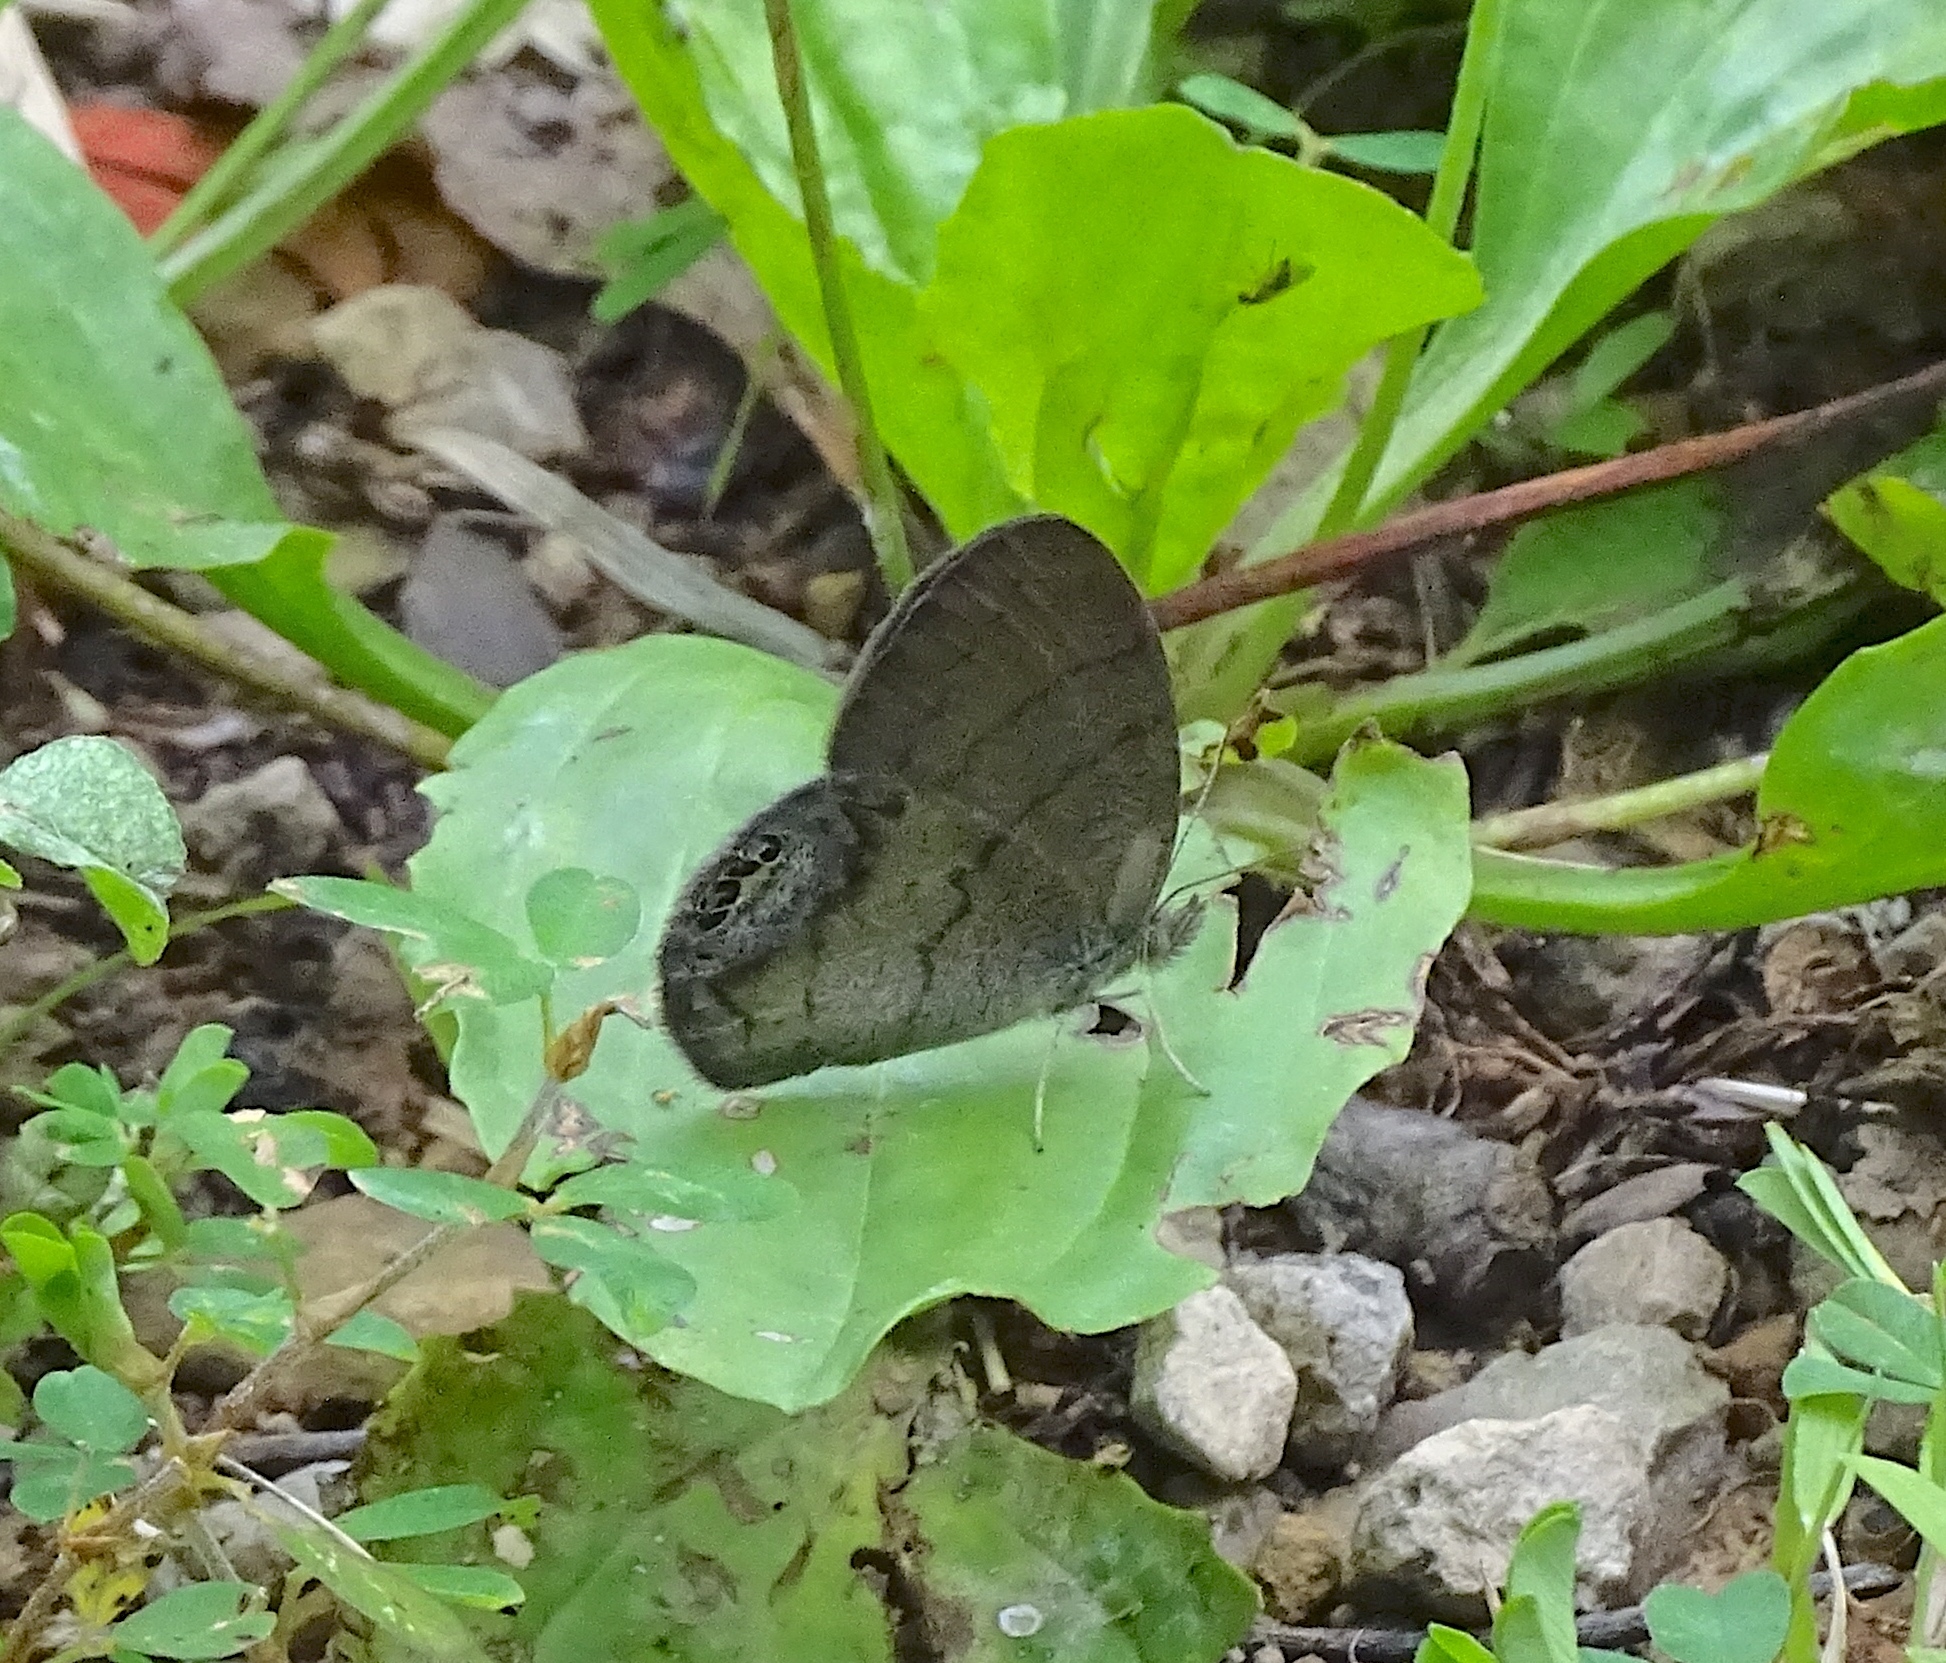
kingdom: Animalia
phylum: Arthropoda
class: Insecta
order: Lepidoptera
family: Nymphalidae
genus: Euptychia
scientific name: Euptychia cornelius
